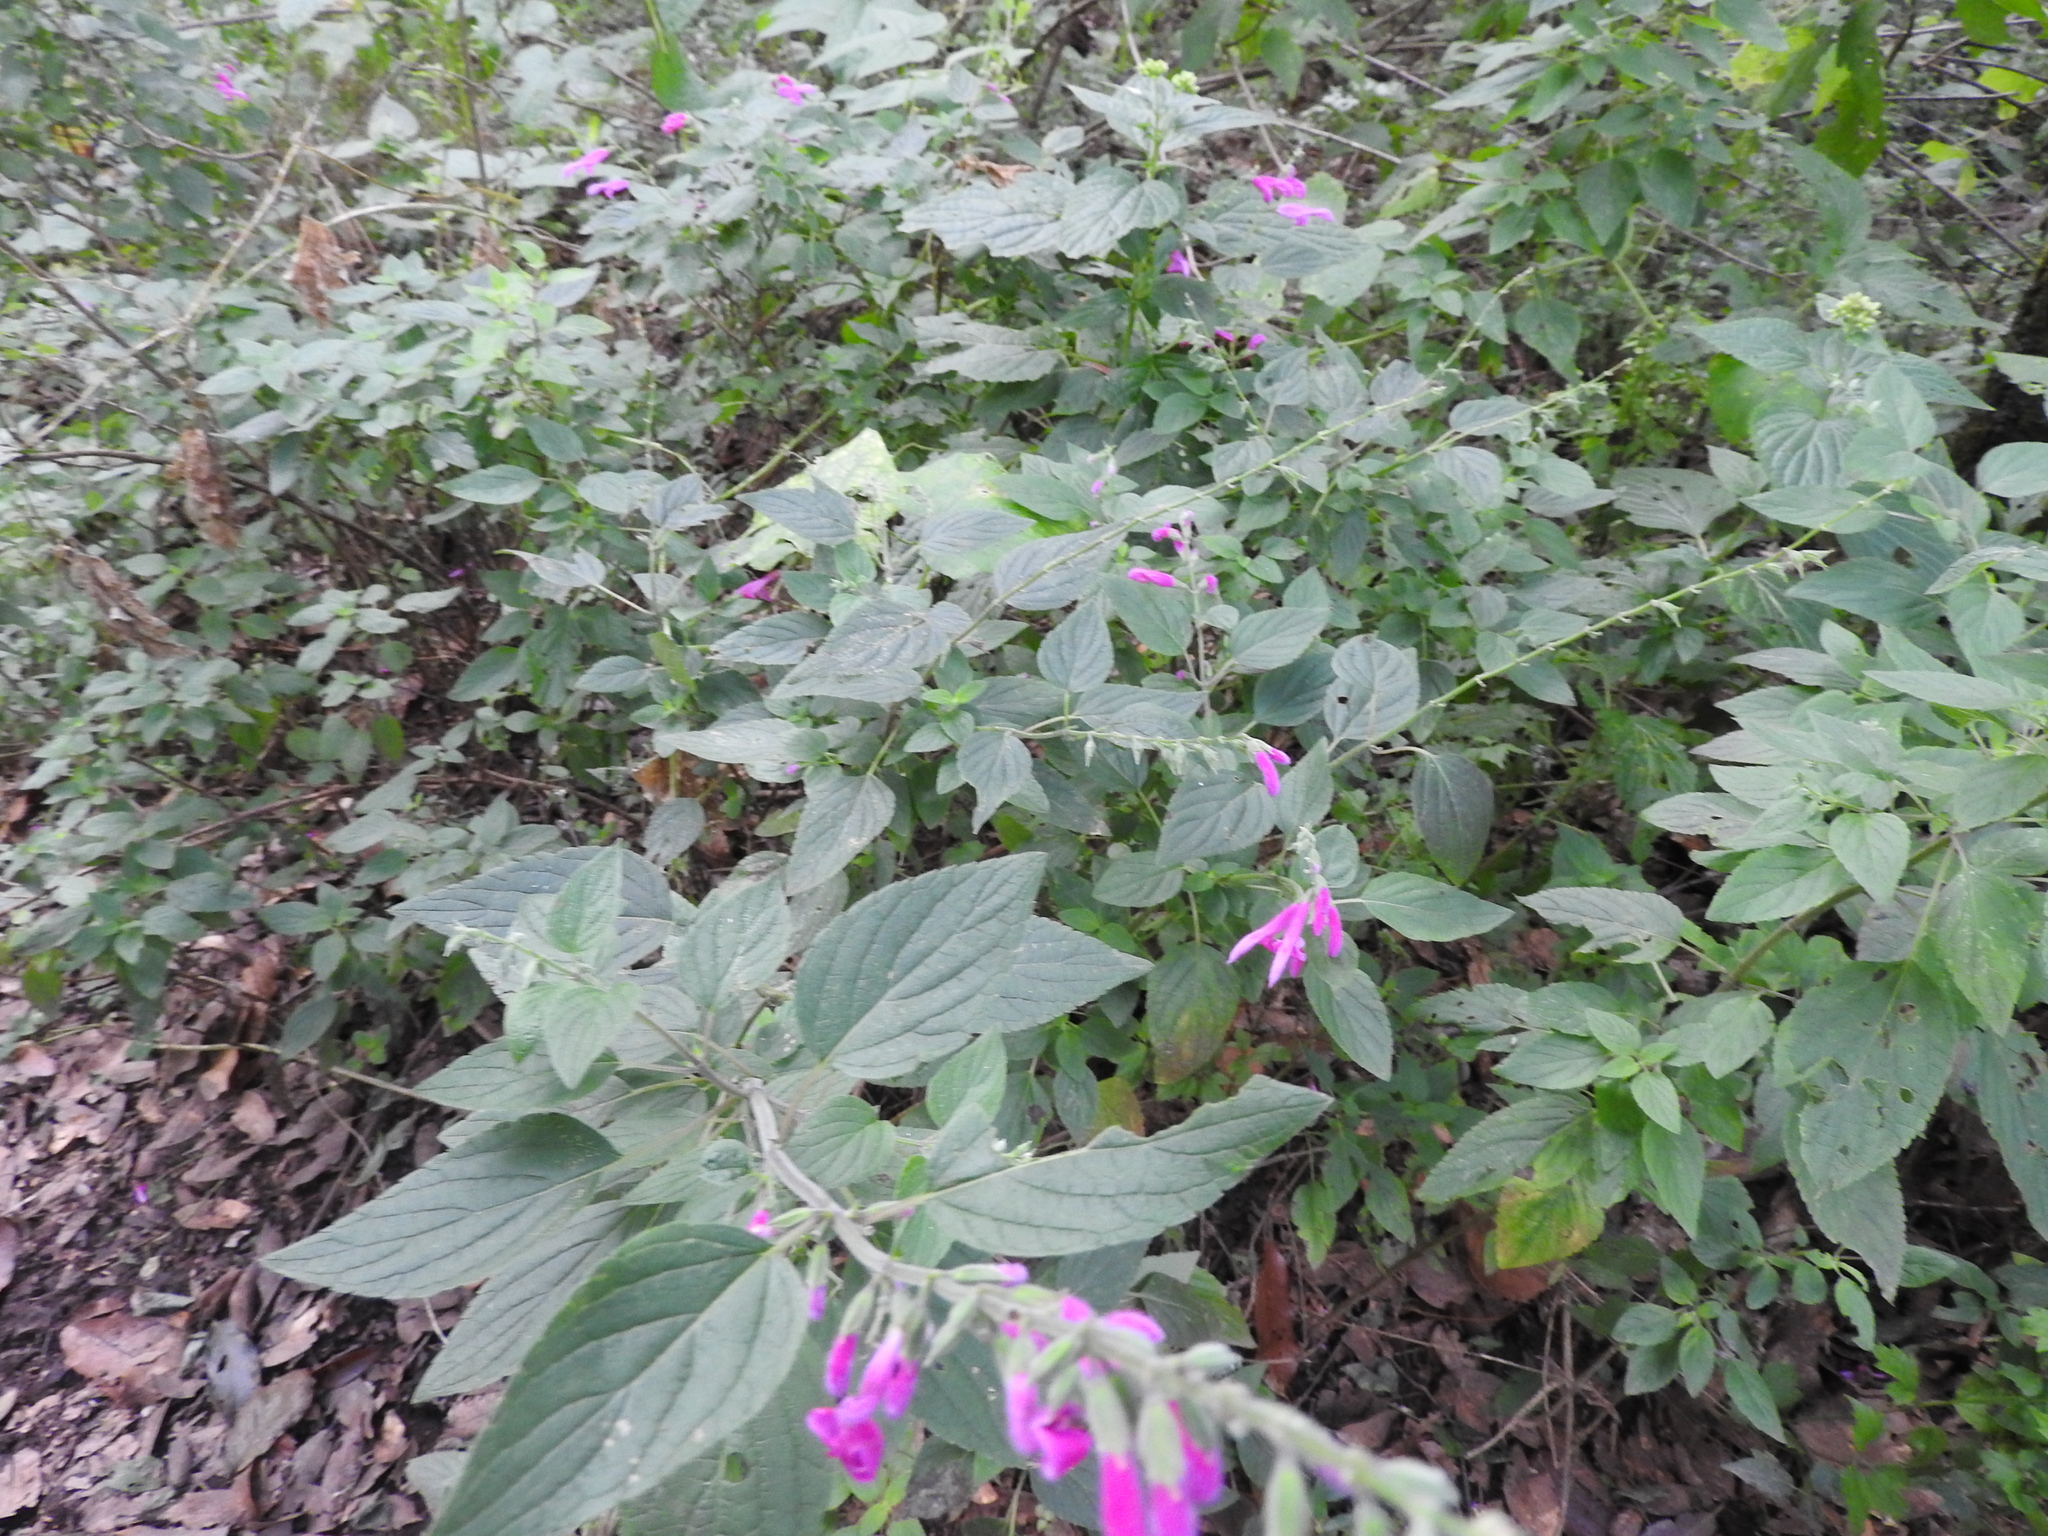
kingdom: Plantae
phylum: Tracheophyta
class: Magnoliopsida
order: Lamiales
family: Lamiaceae
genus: Salvia
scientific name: Salvia curviflora
